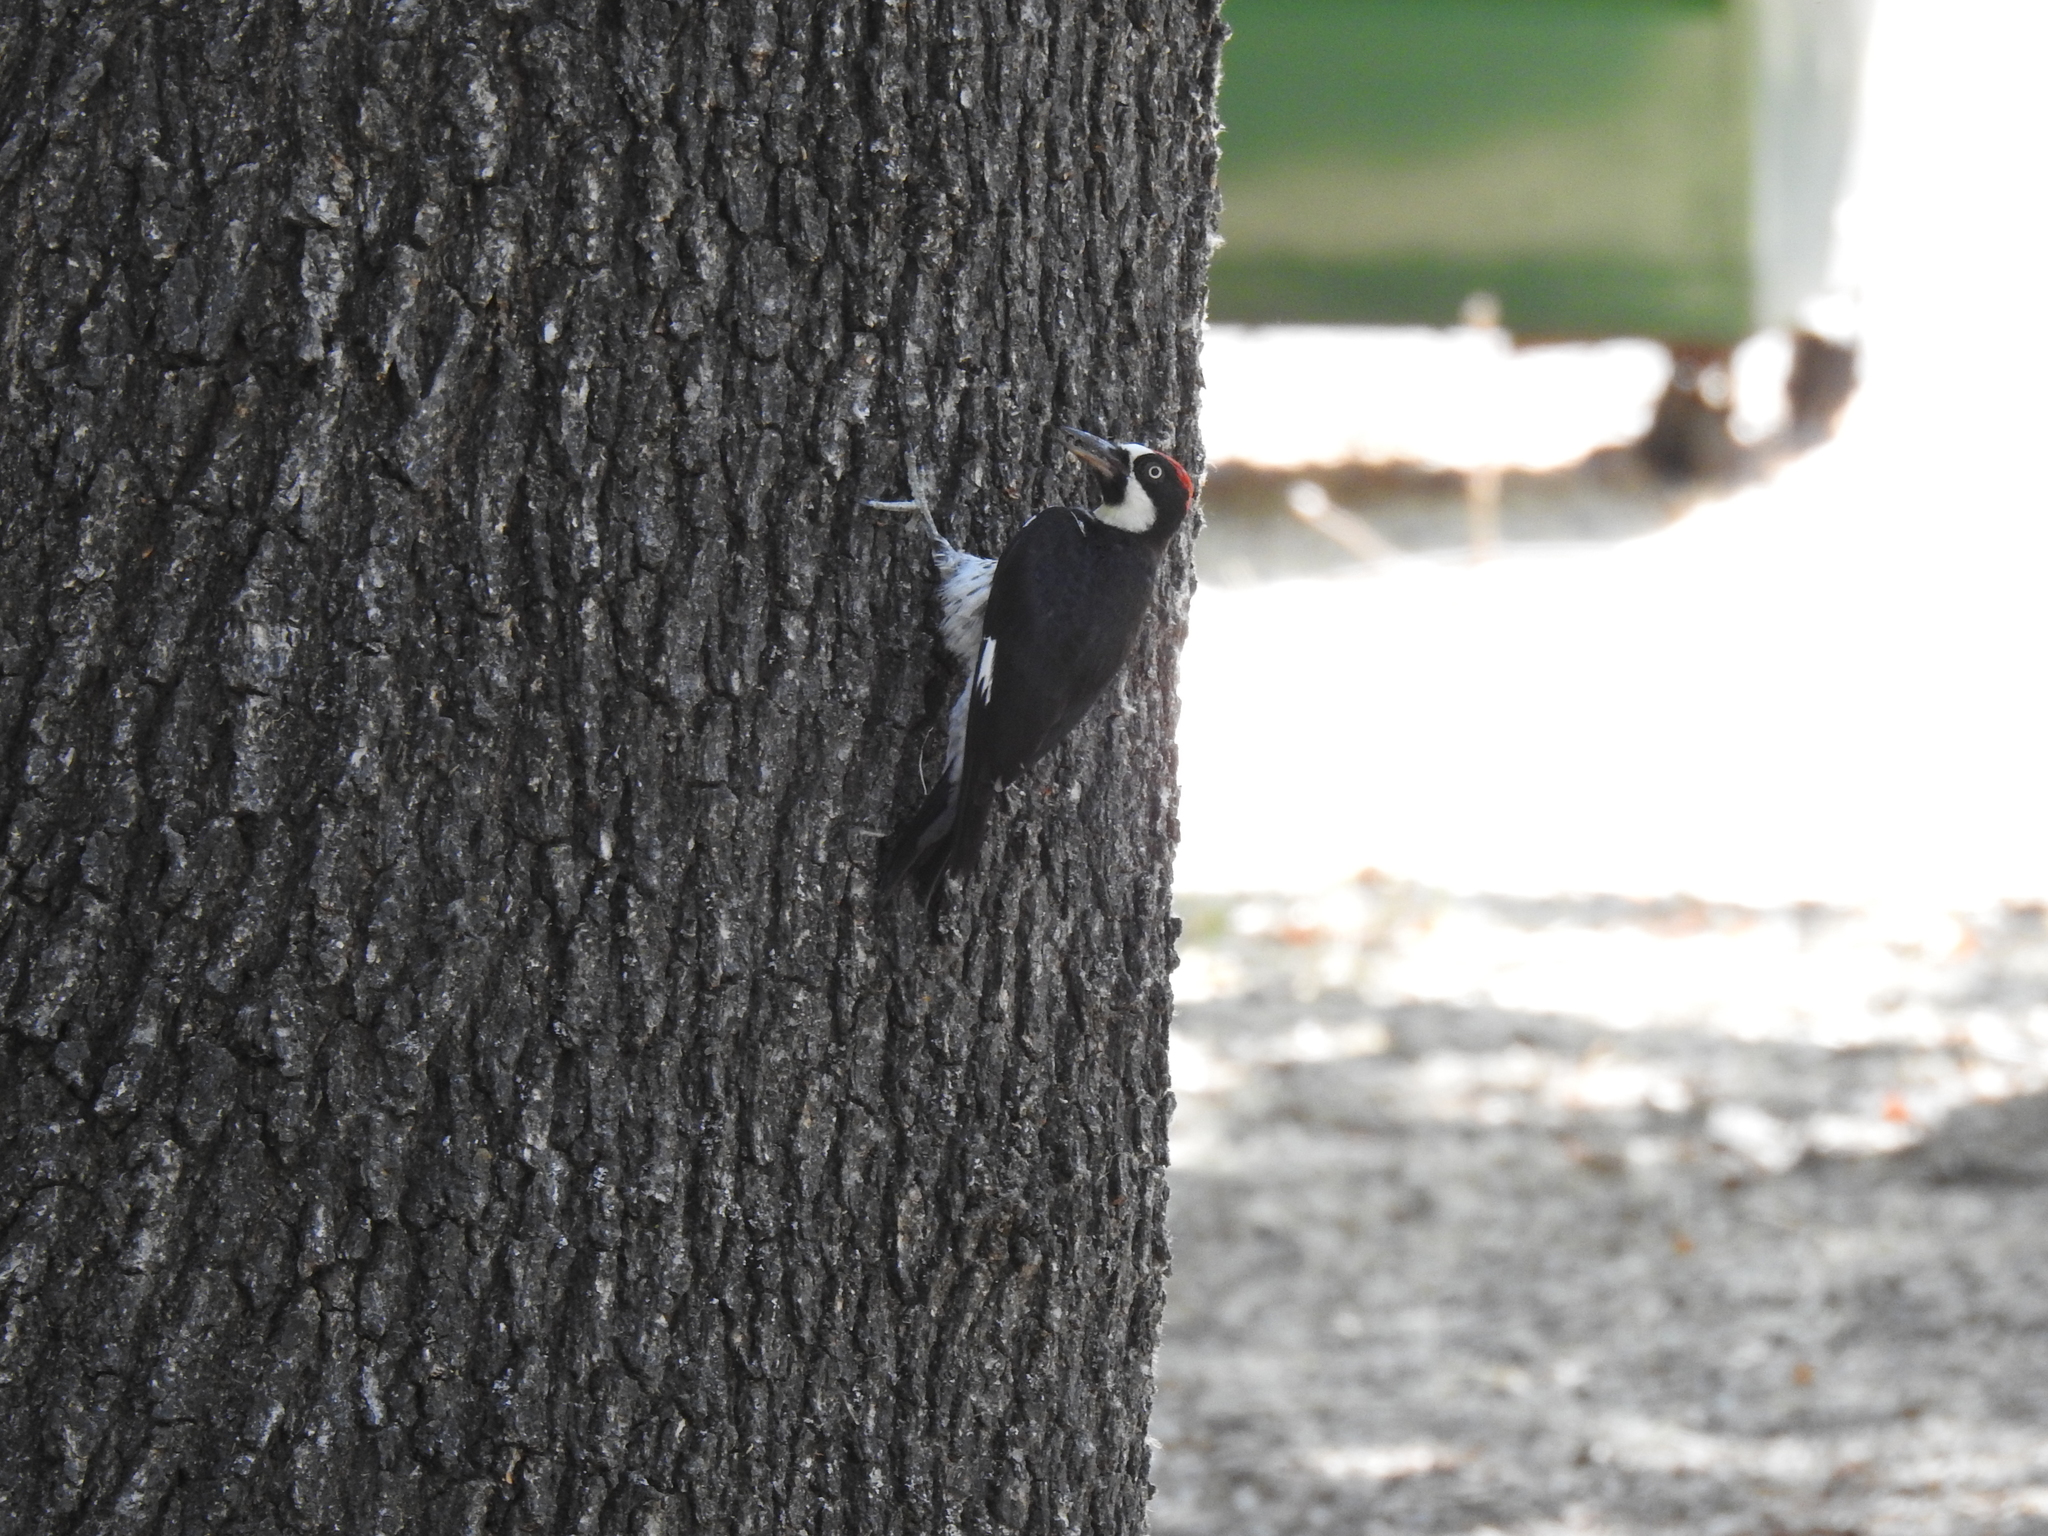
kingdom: Animalia
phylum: Chordata
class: Aves
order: Piciformes
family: Picidae
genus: Melanerpes
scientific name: Melanerpes formicivorus
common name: Acorn woodpecker
